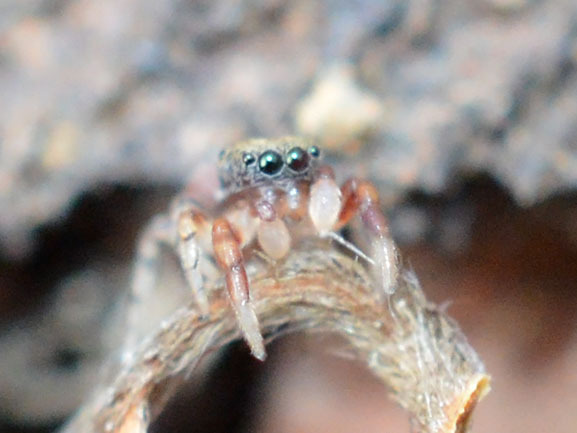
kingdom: Animalia
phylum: Arthropoda
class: Arachnida
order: Araneae
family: Salticidae
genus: Ballus
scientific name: Ballus chalybeius
